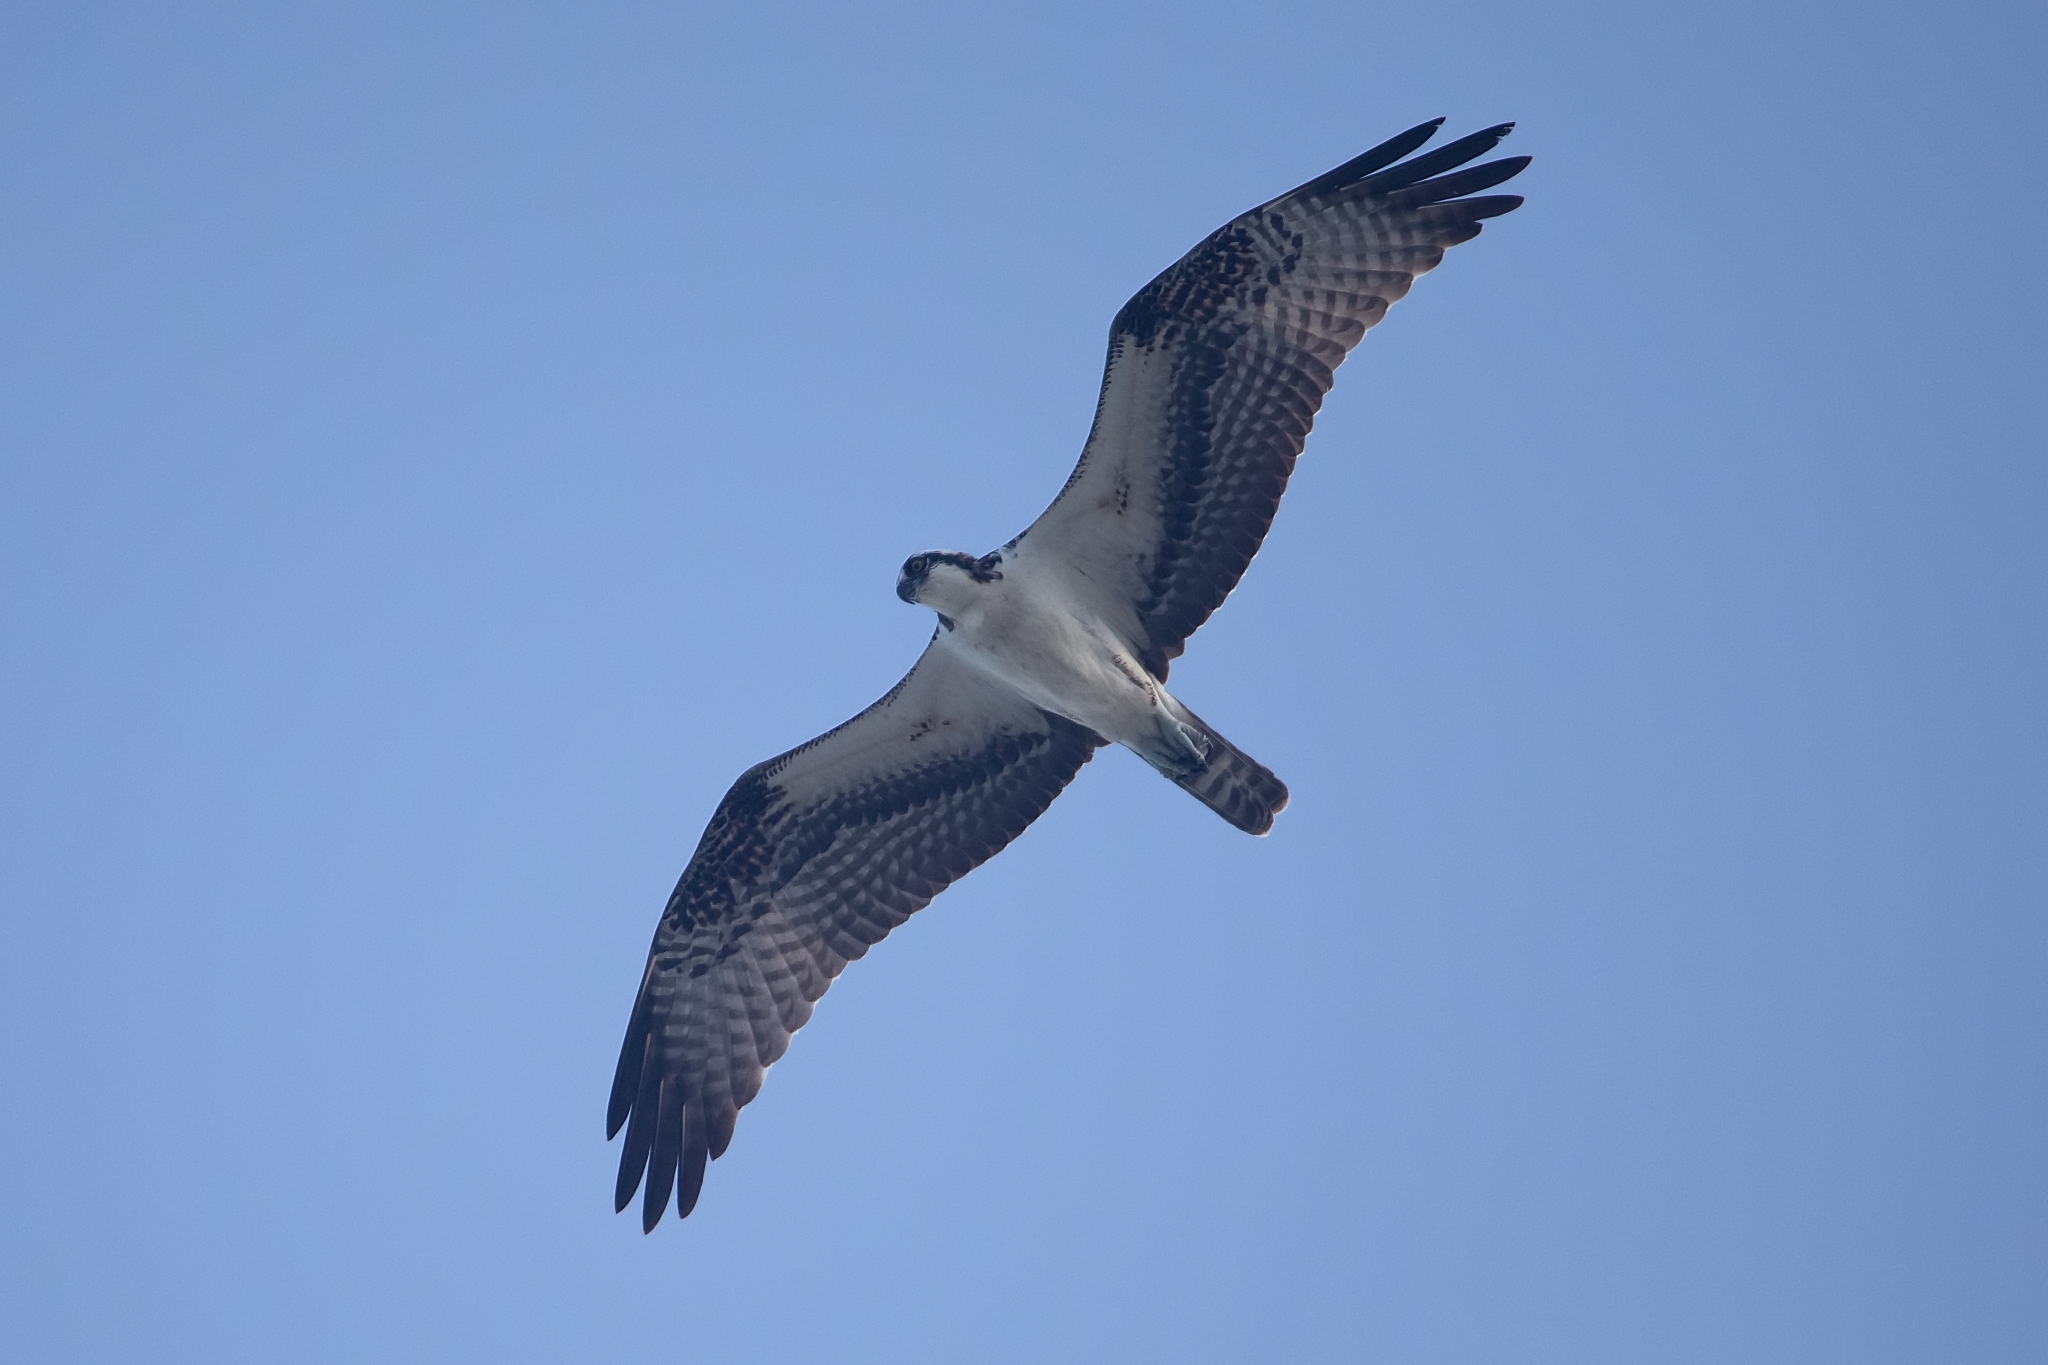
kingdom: Animalia
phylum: Chordata
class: Aves
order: Accipitriformes
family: Pandionidae
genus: Pandion
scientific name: Pandion haliaetus
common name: Osprey
